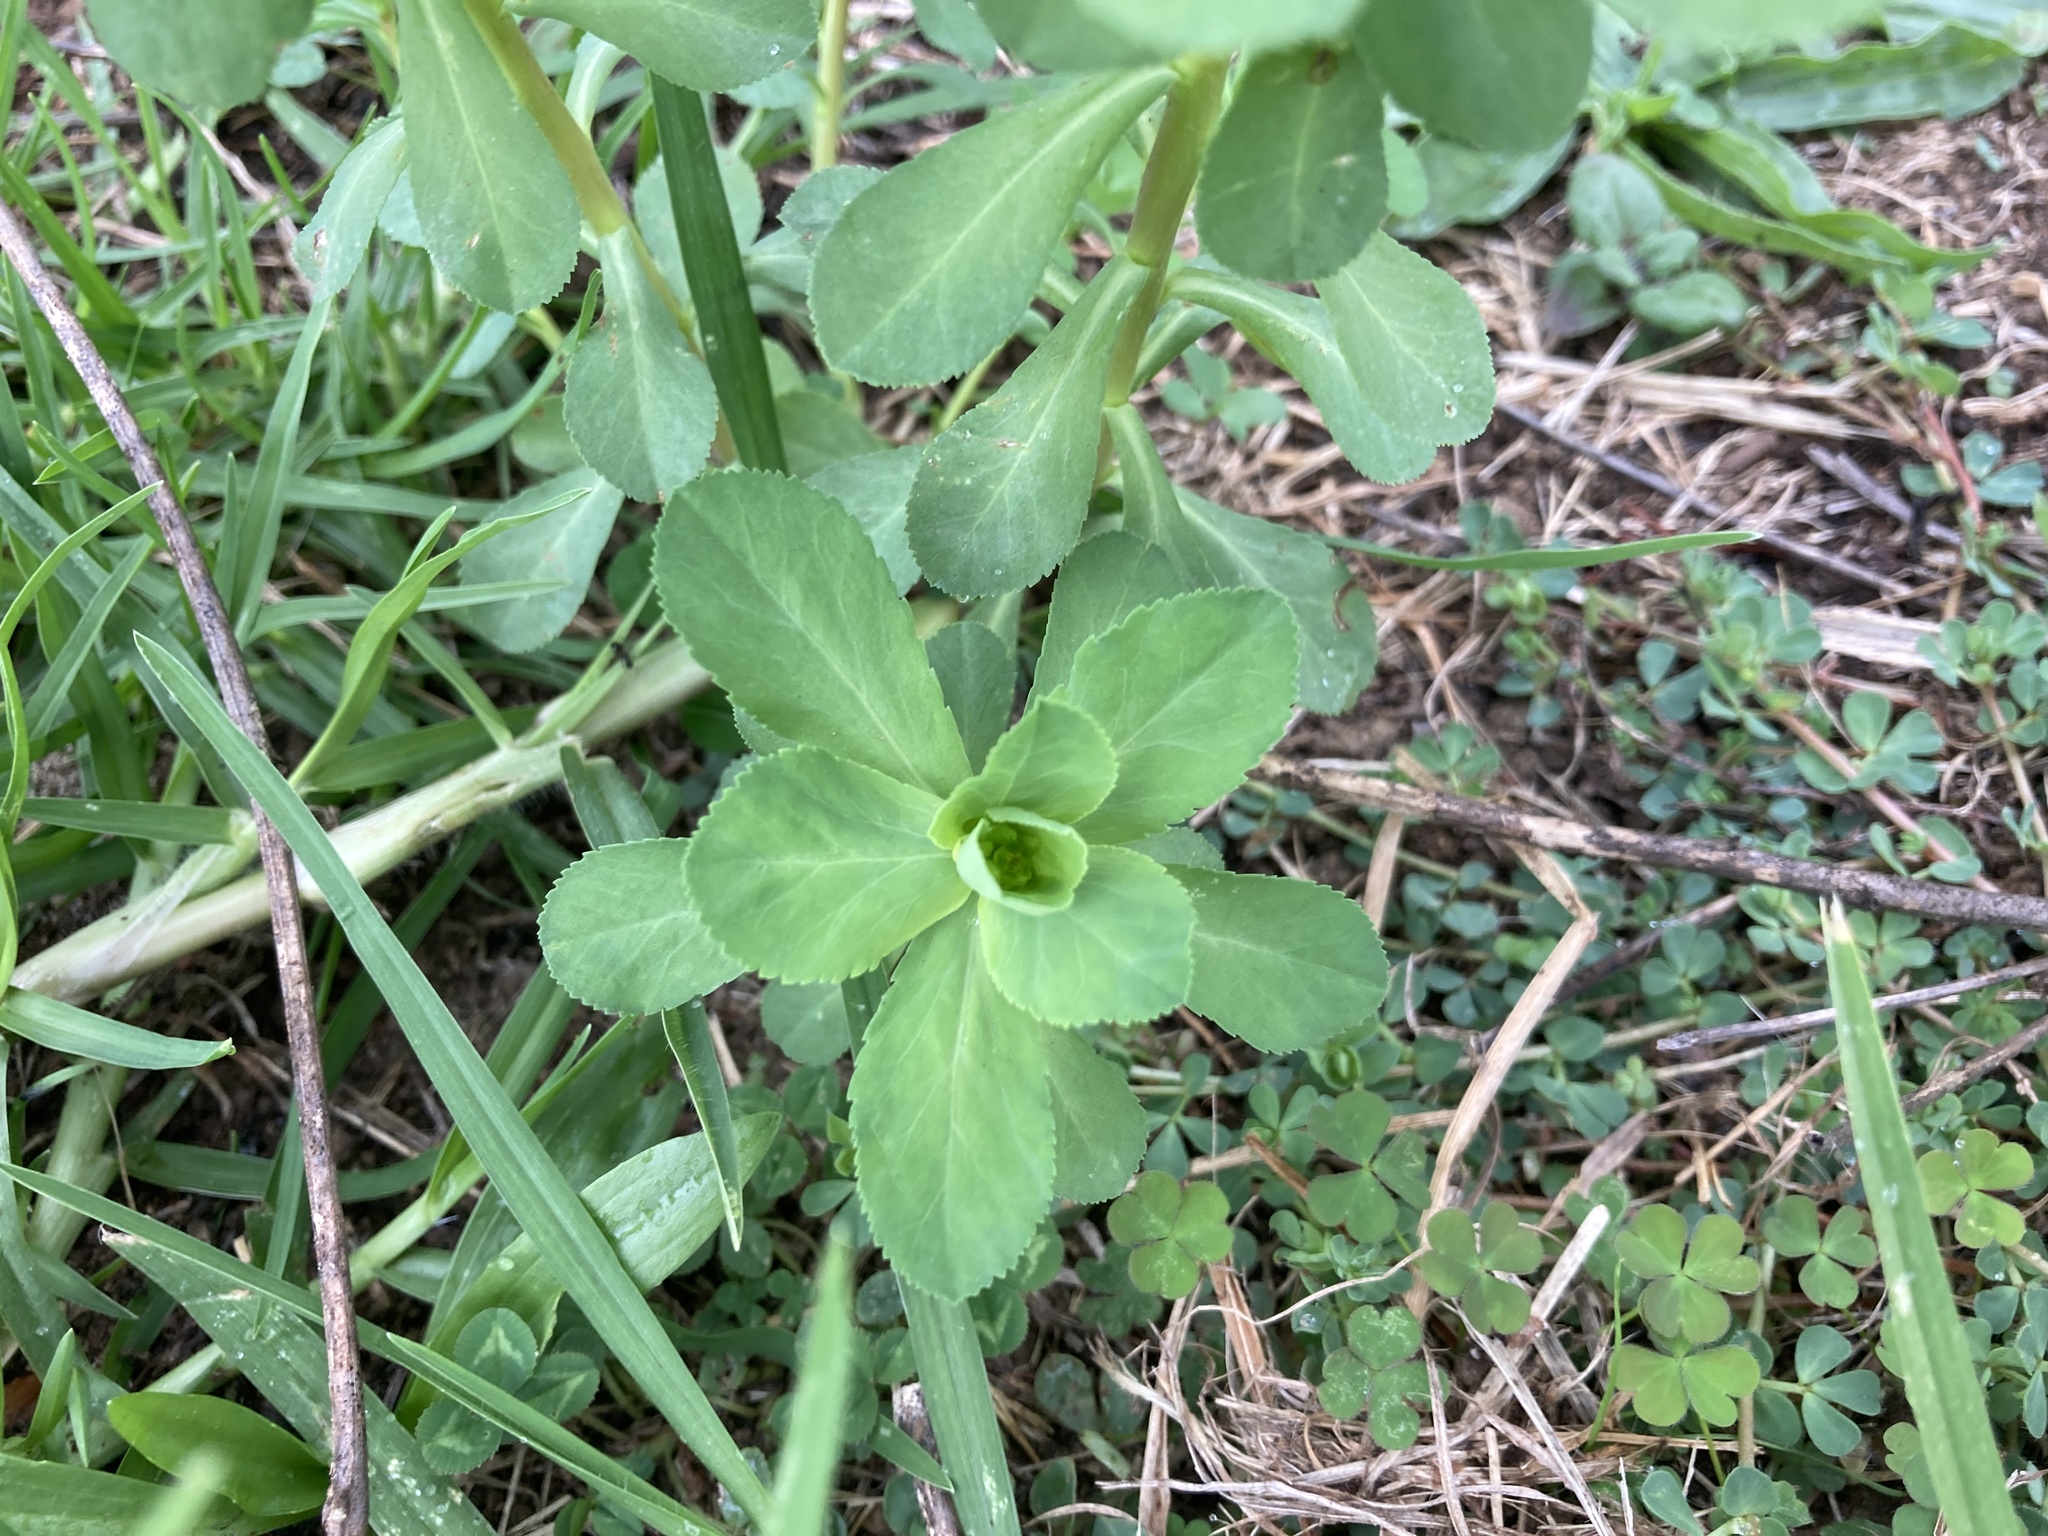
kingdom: Plantae
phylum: Tracheophyta
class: Magnoliopsida
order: Malpighiales
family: Euphorbiaceae
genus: Euphorbia
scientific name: Euphorbia helioscopia
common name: Sun spurge
